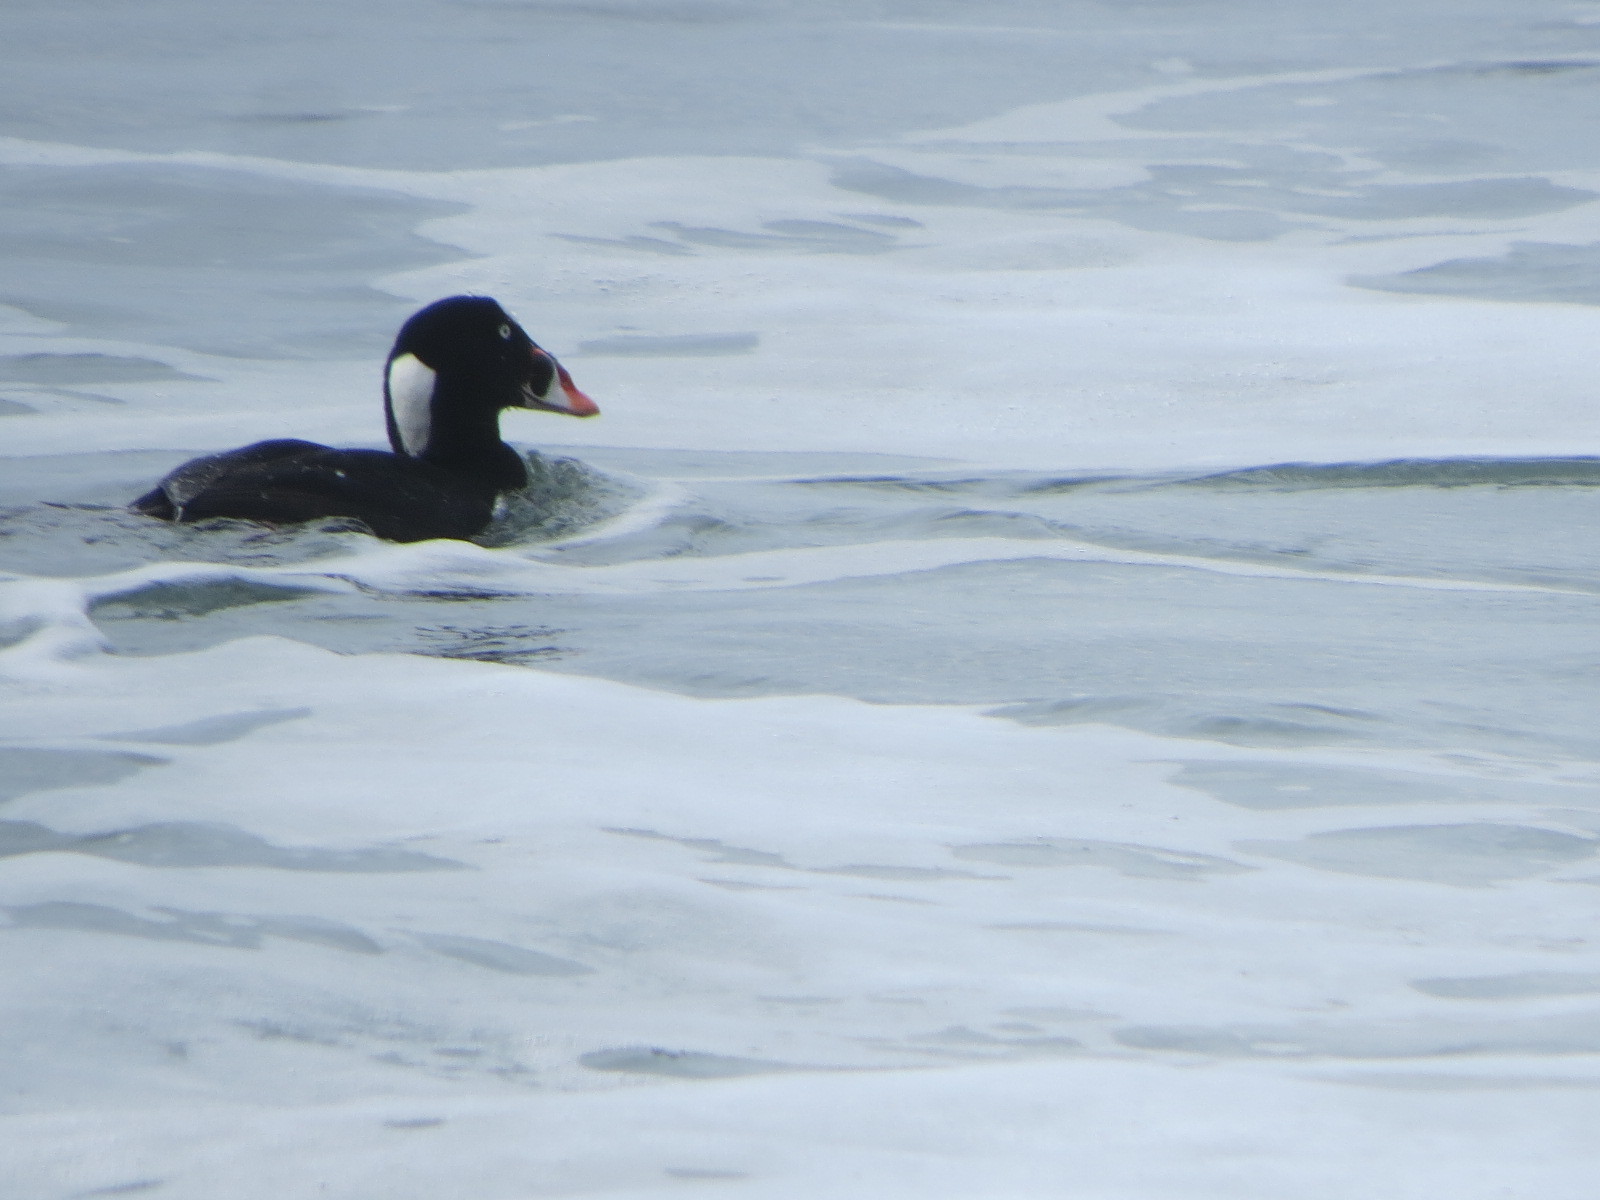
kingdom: Animalia
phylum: Chordata
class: Aves
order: Anseriformes
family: Anatidae
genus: Melanitta
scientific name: Melanitta perspicillata
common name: Surf scoter
